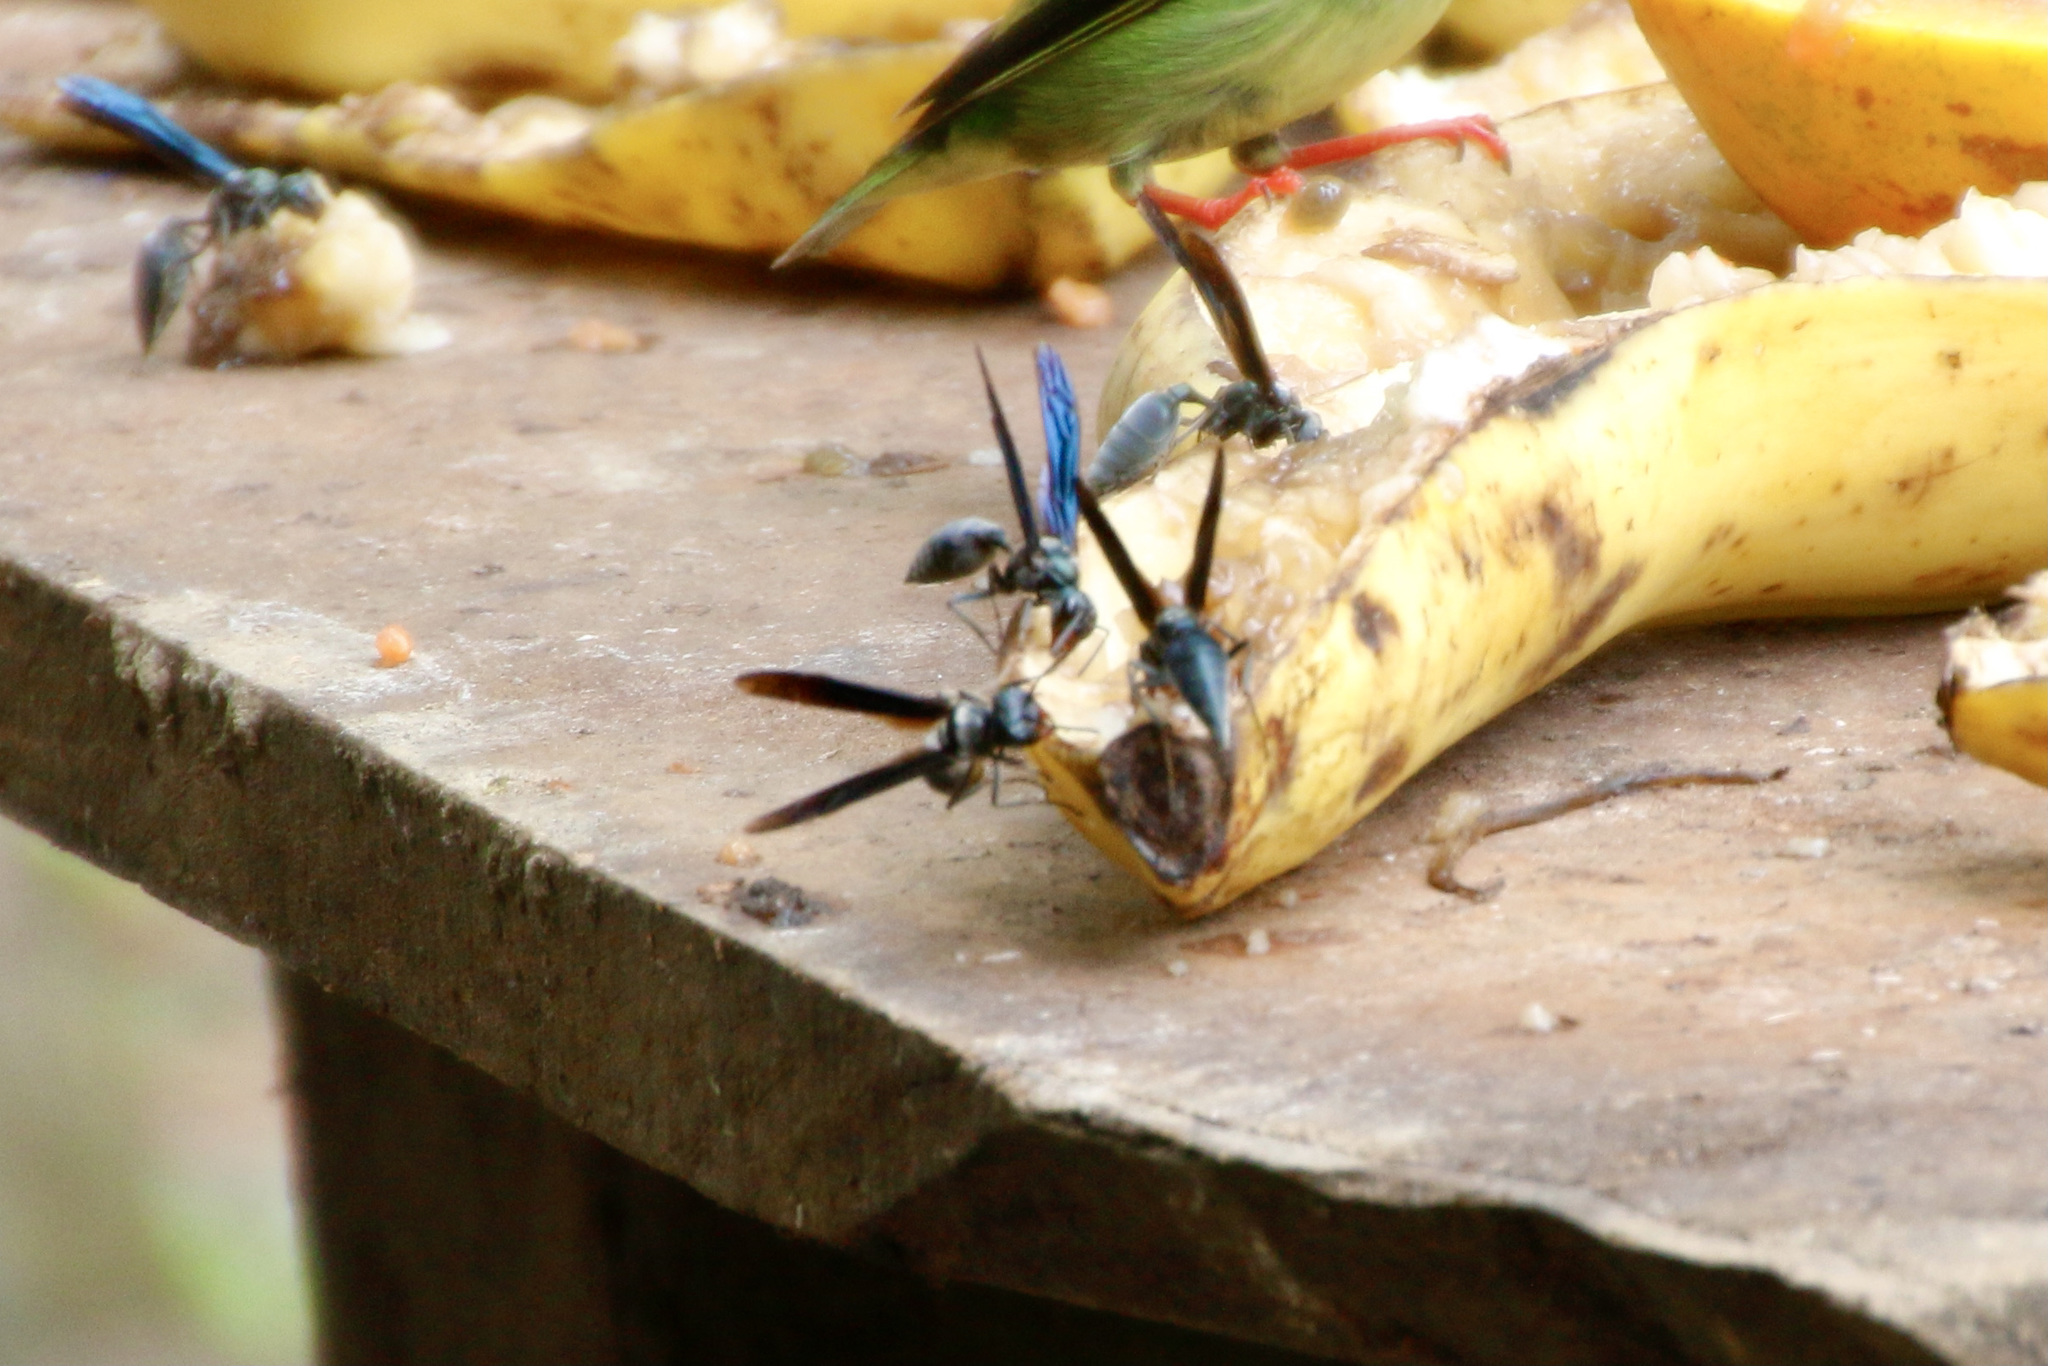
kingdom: Animalia
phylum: Arthropoda
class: Insecta
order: Hymenoptera
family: Vespidae
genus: Synoeca
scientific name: Synoeca septentrionalis
